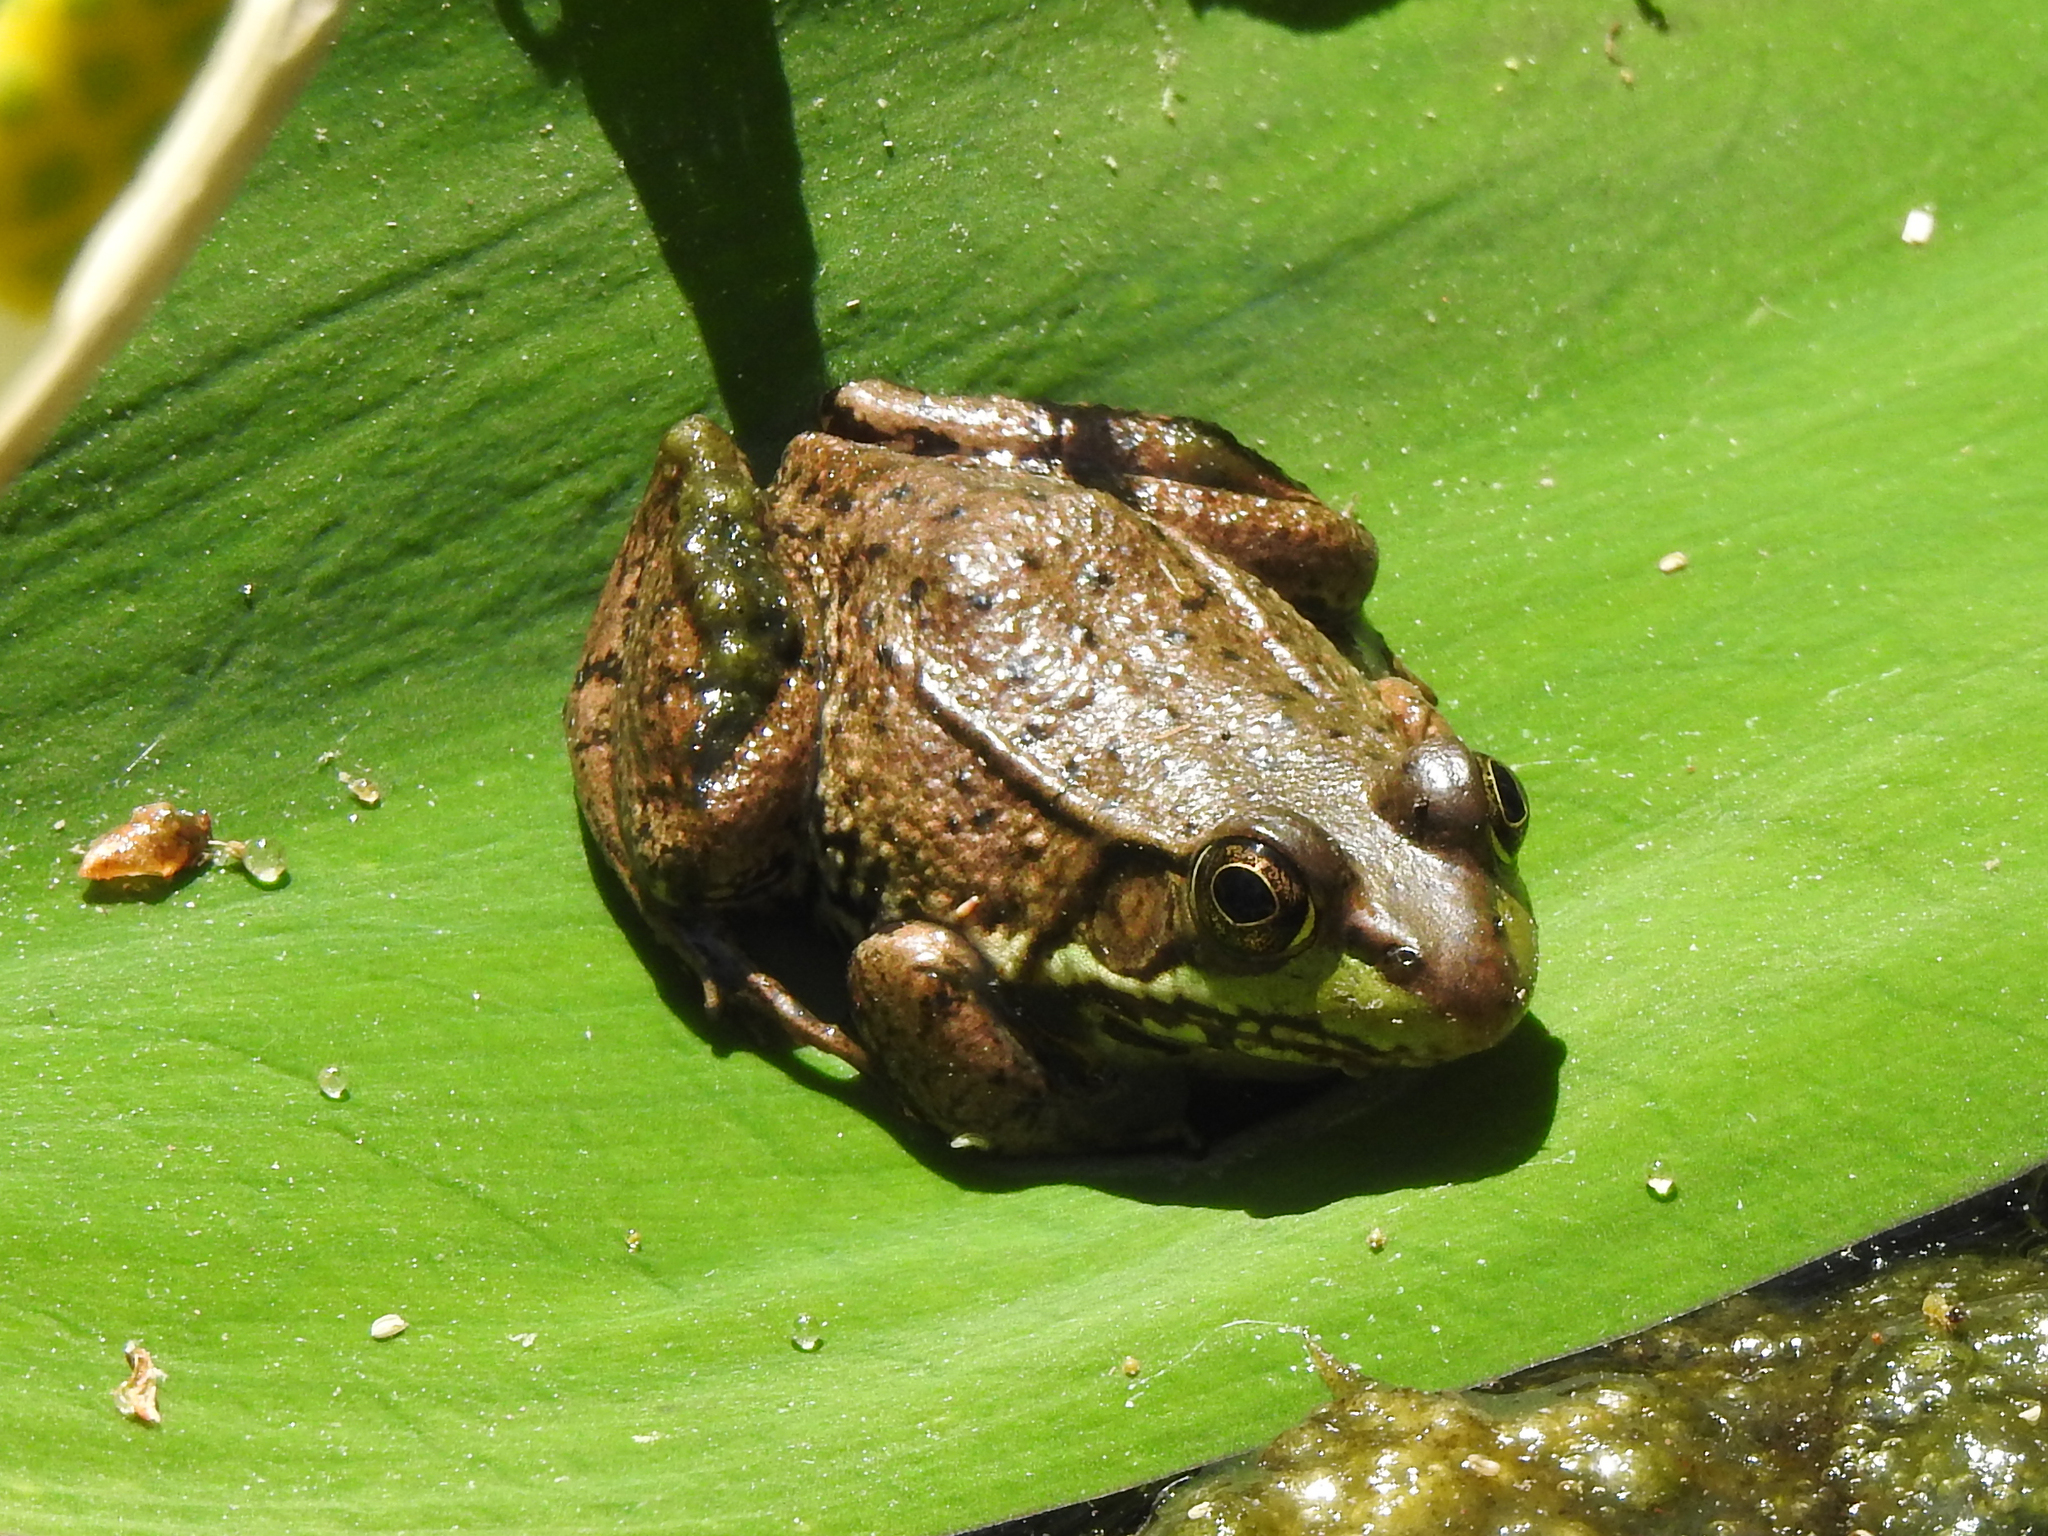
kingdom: Animalia
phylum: Chordata
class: Amphibia
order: Anura
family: Ranidae
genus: Lithobates
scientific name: Lithobates clamitans
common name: Green frog
